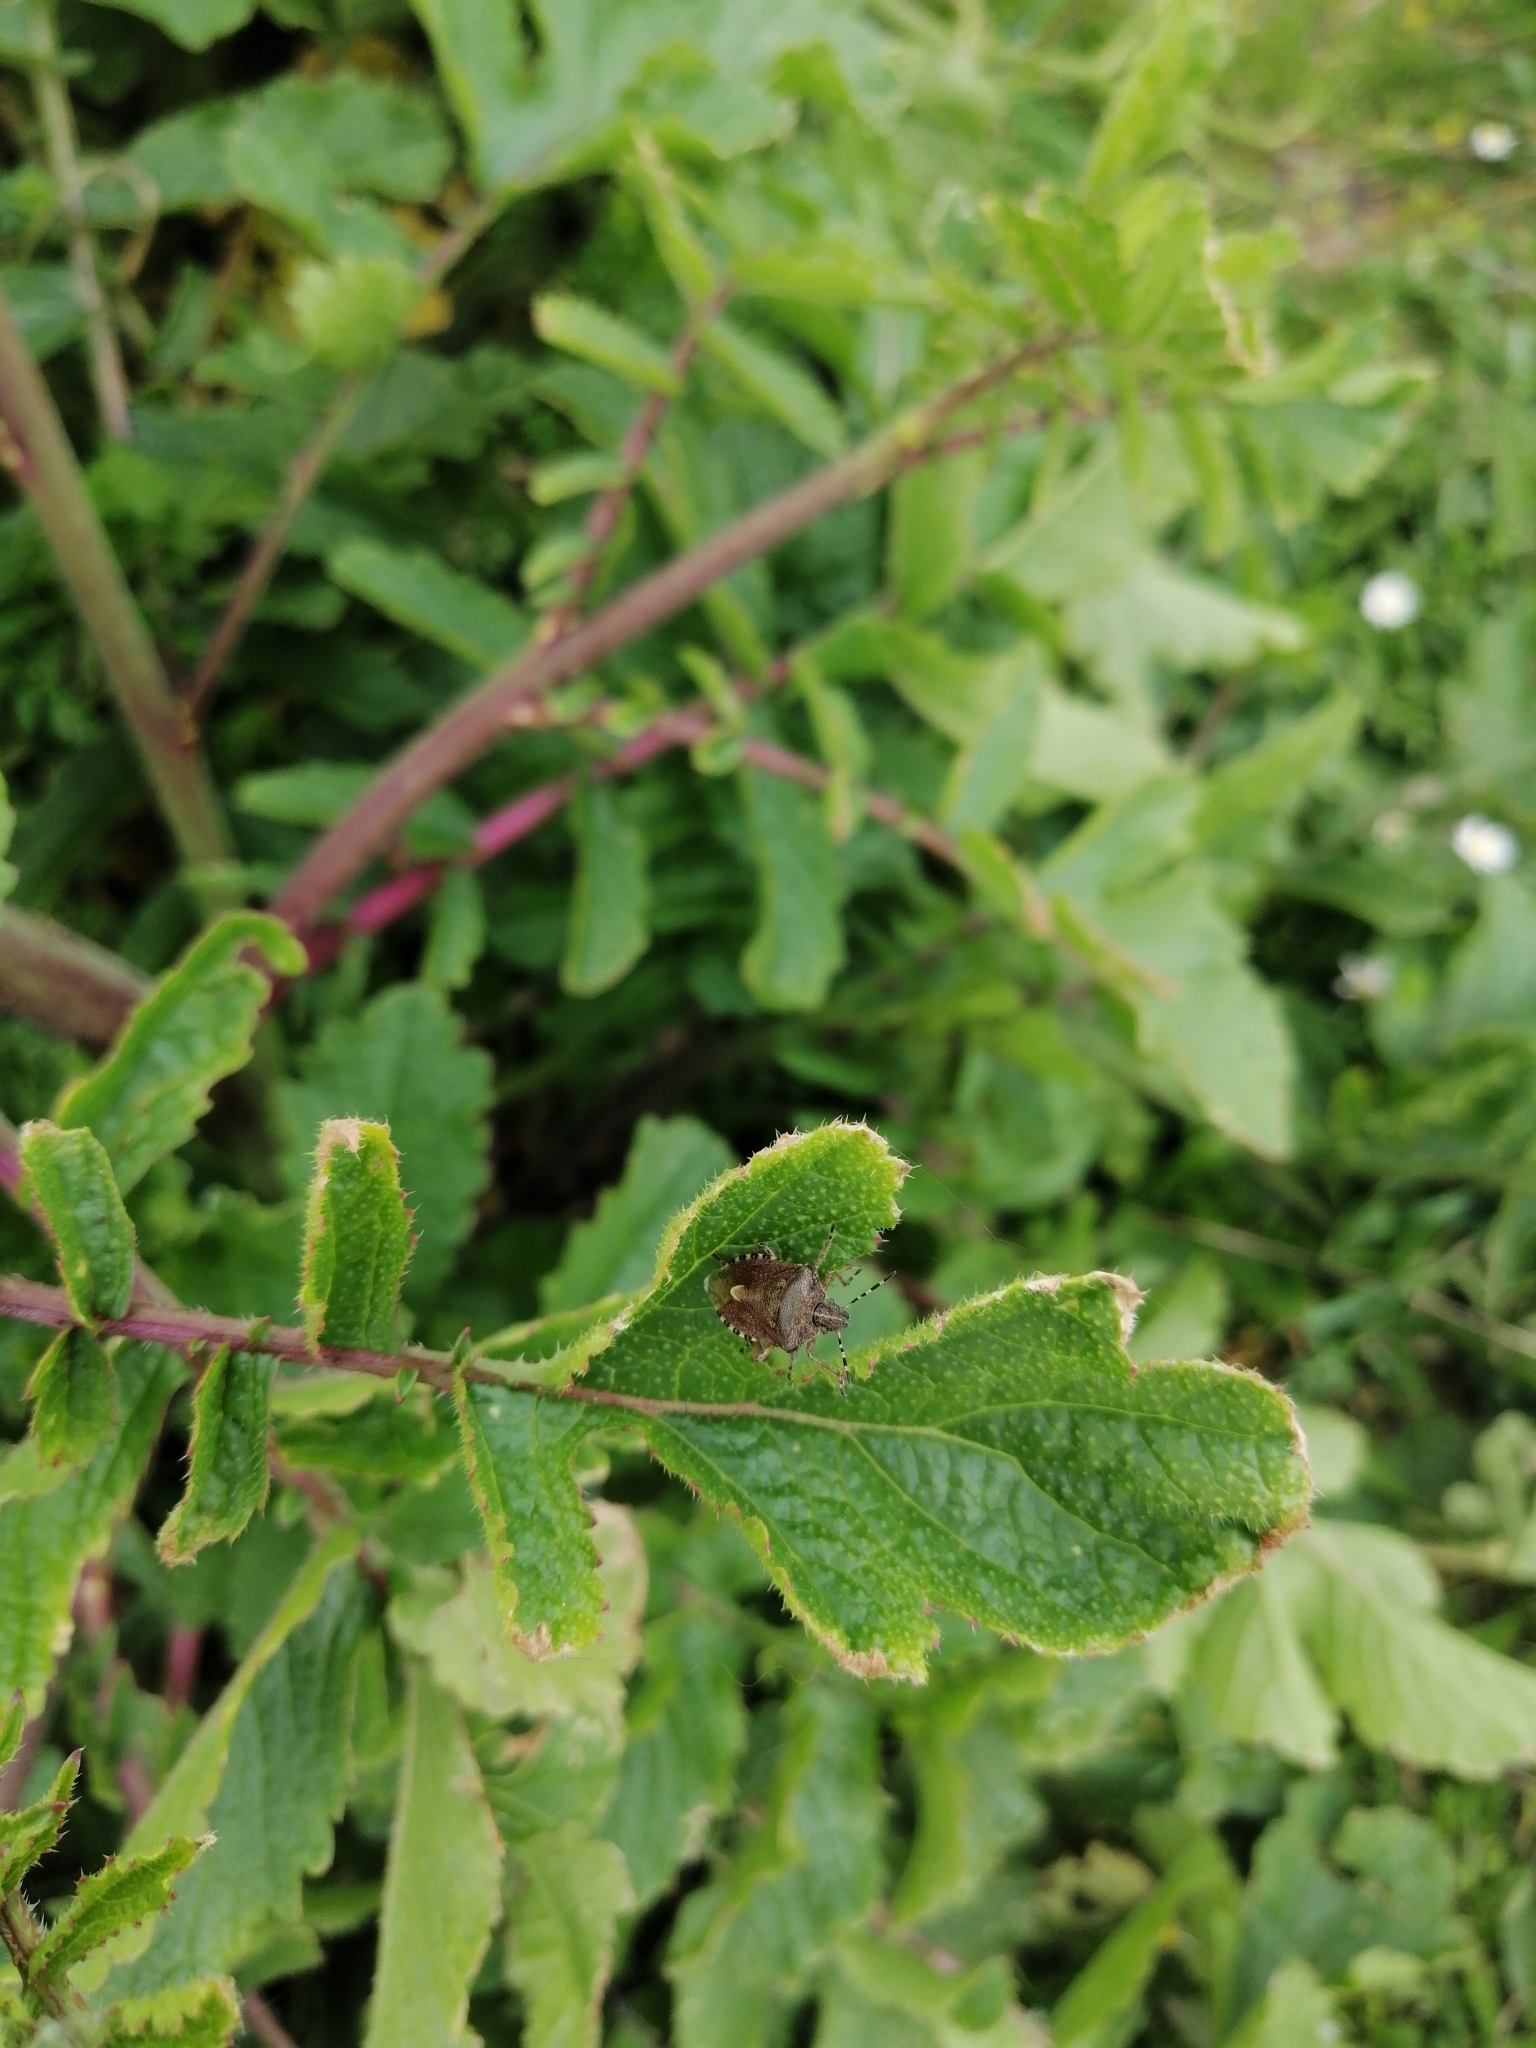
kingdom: Animalia
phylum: Arthropoda
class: Insecta
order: Hemiptera
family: Pentatomidae
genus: Dolycoris
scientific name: Dolycoris baccarum
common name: Sloe bug
